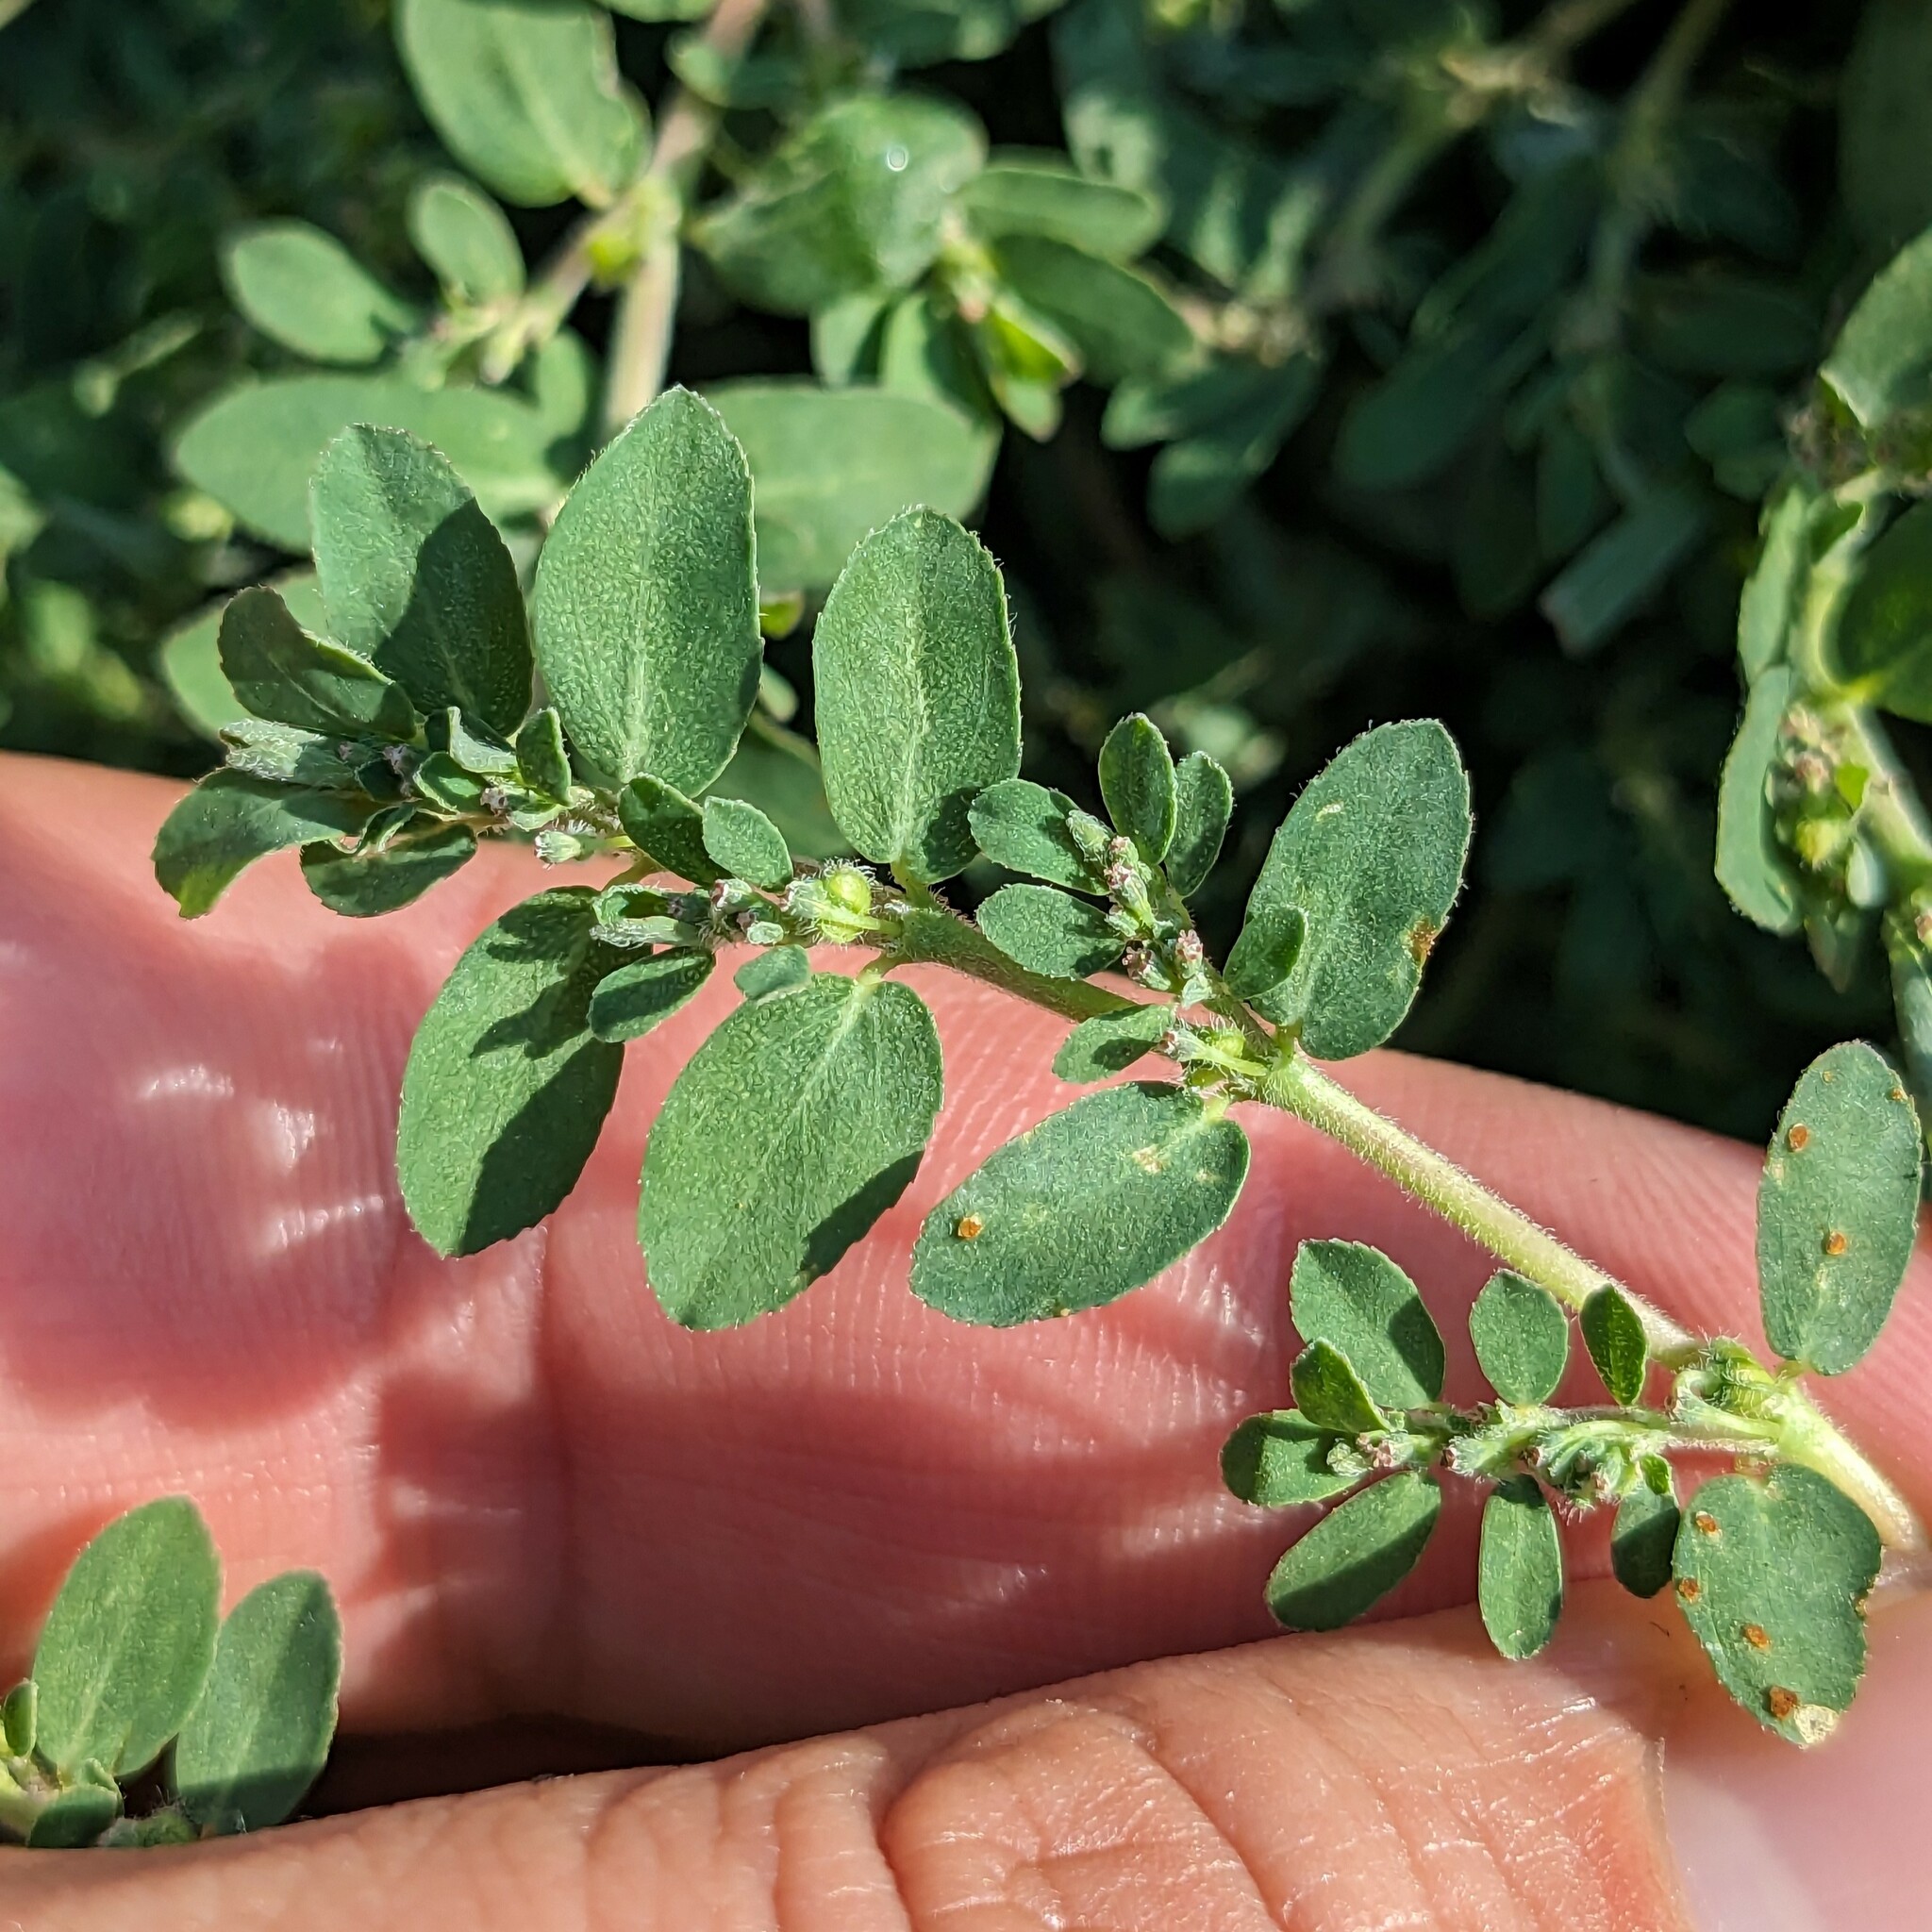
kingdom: Plantae
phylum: Tracheophyta
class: Magnoliopsida
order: Malpighiales
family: Euphorbiaceae
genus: Euphorbia
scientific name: Euphorbia prostrata
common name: Prostrate sandmat
